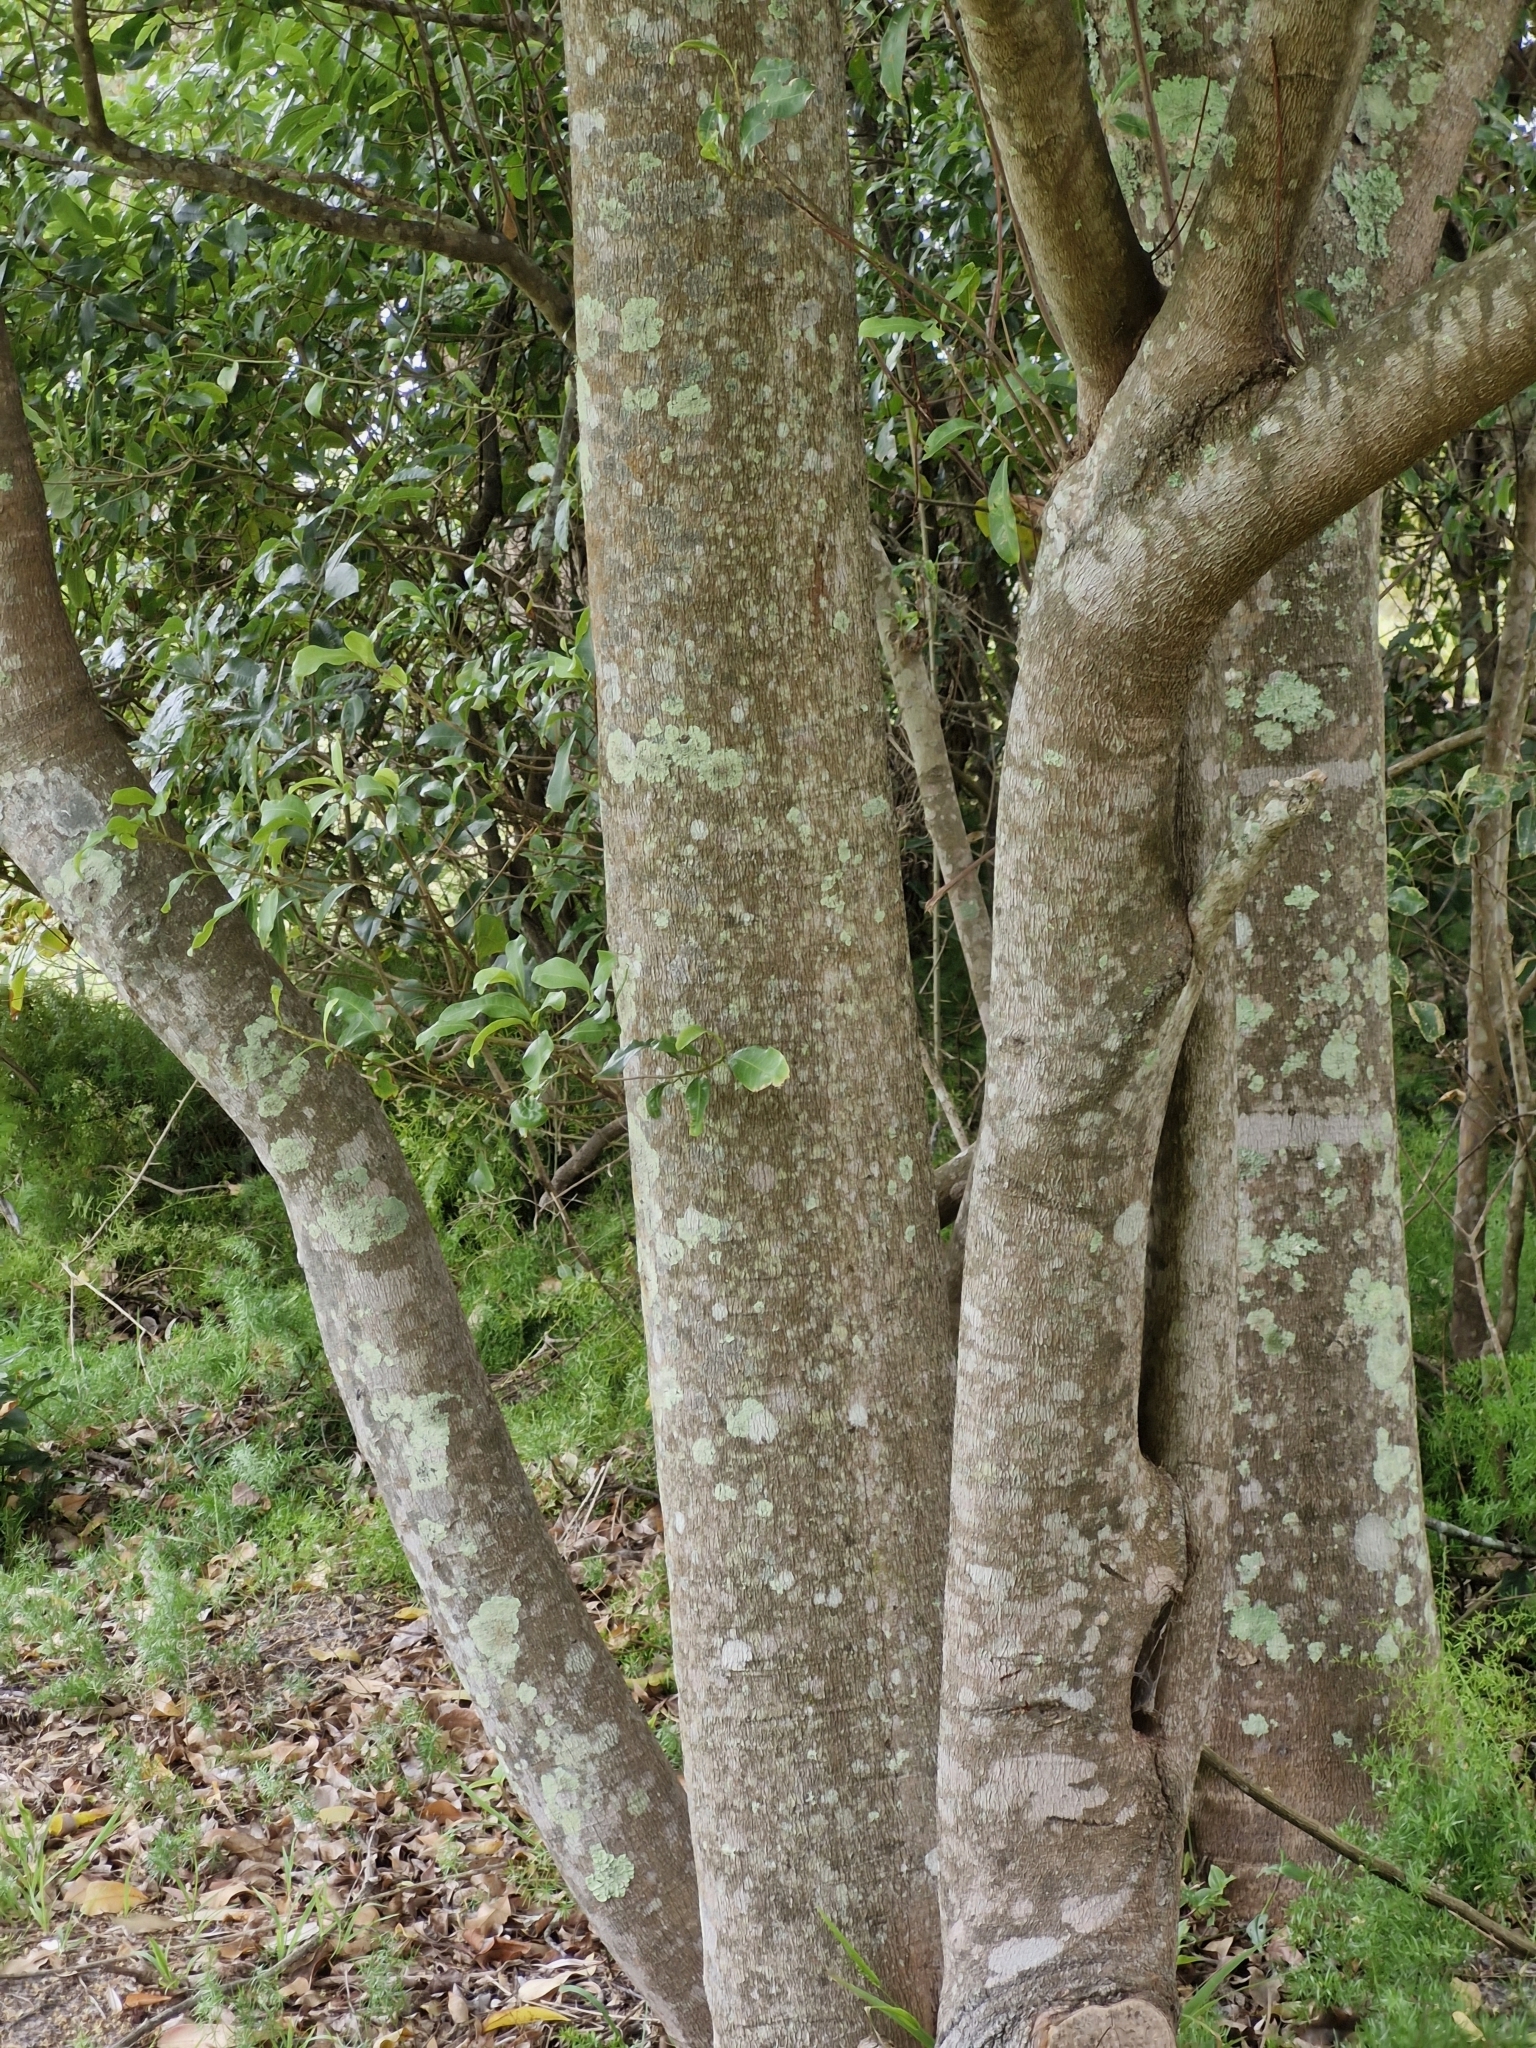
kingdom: Plantae
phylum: Tracheophyta
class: Magnoliopsida
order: Sapindales
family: Rutaceae
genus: Acronychia
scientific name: Acronychia oblongifolia
